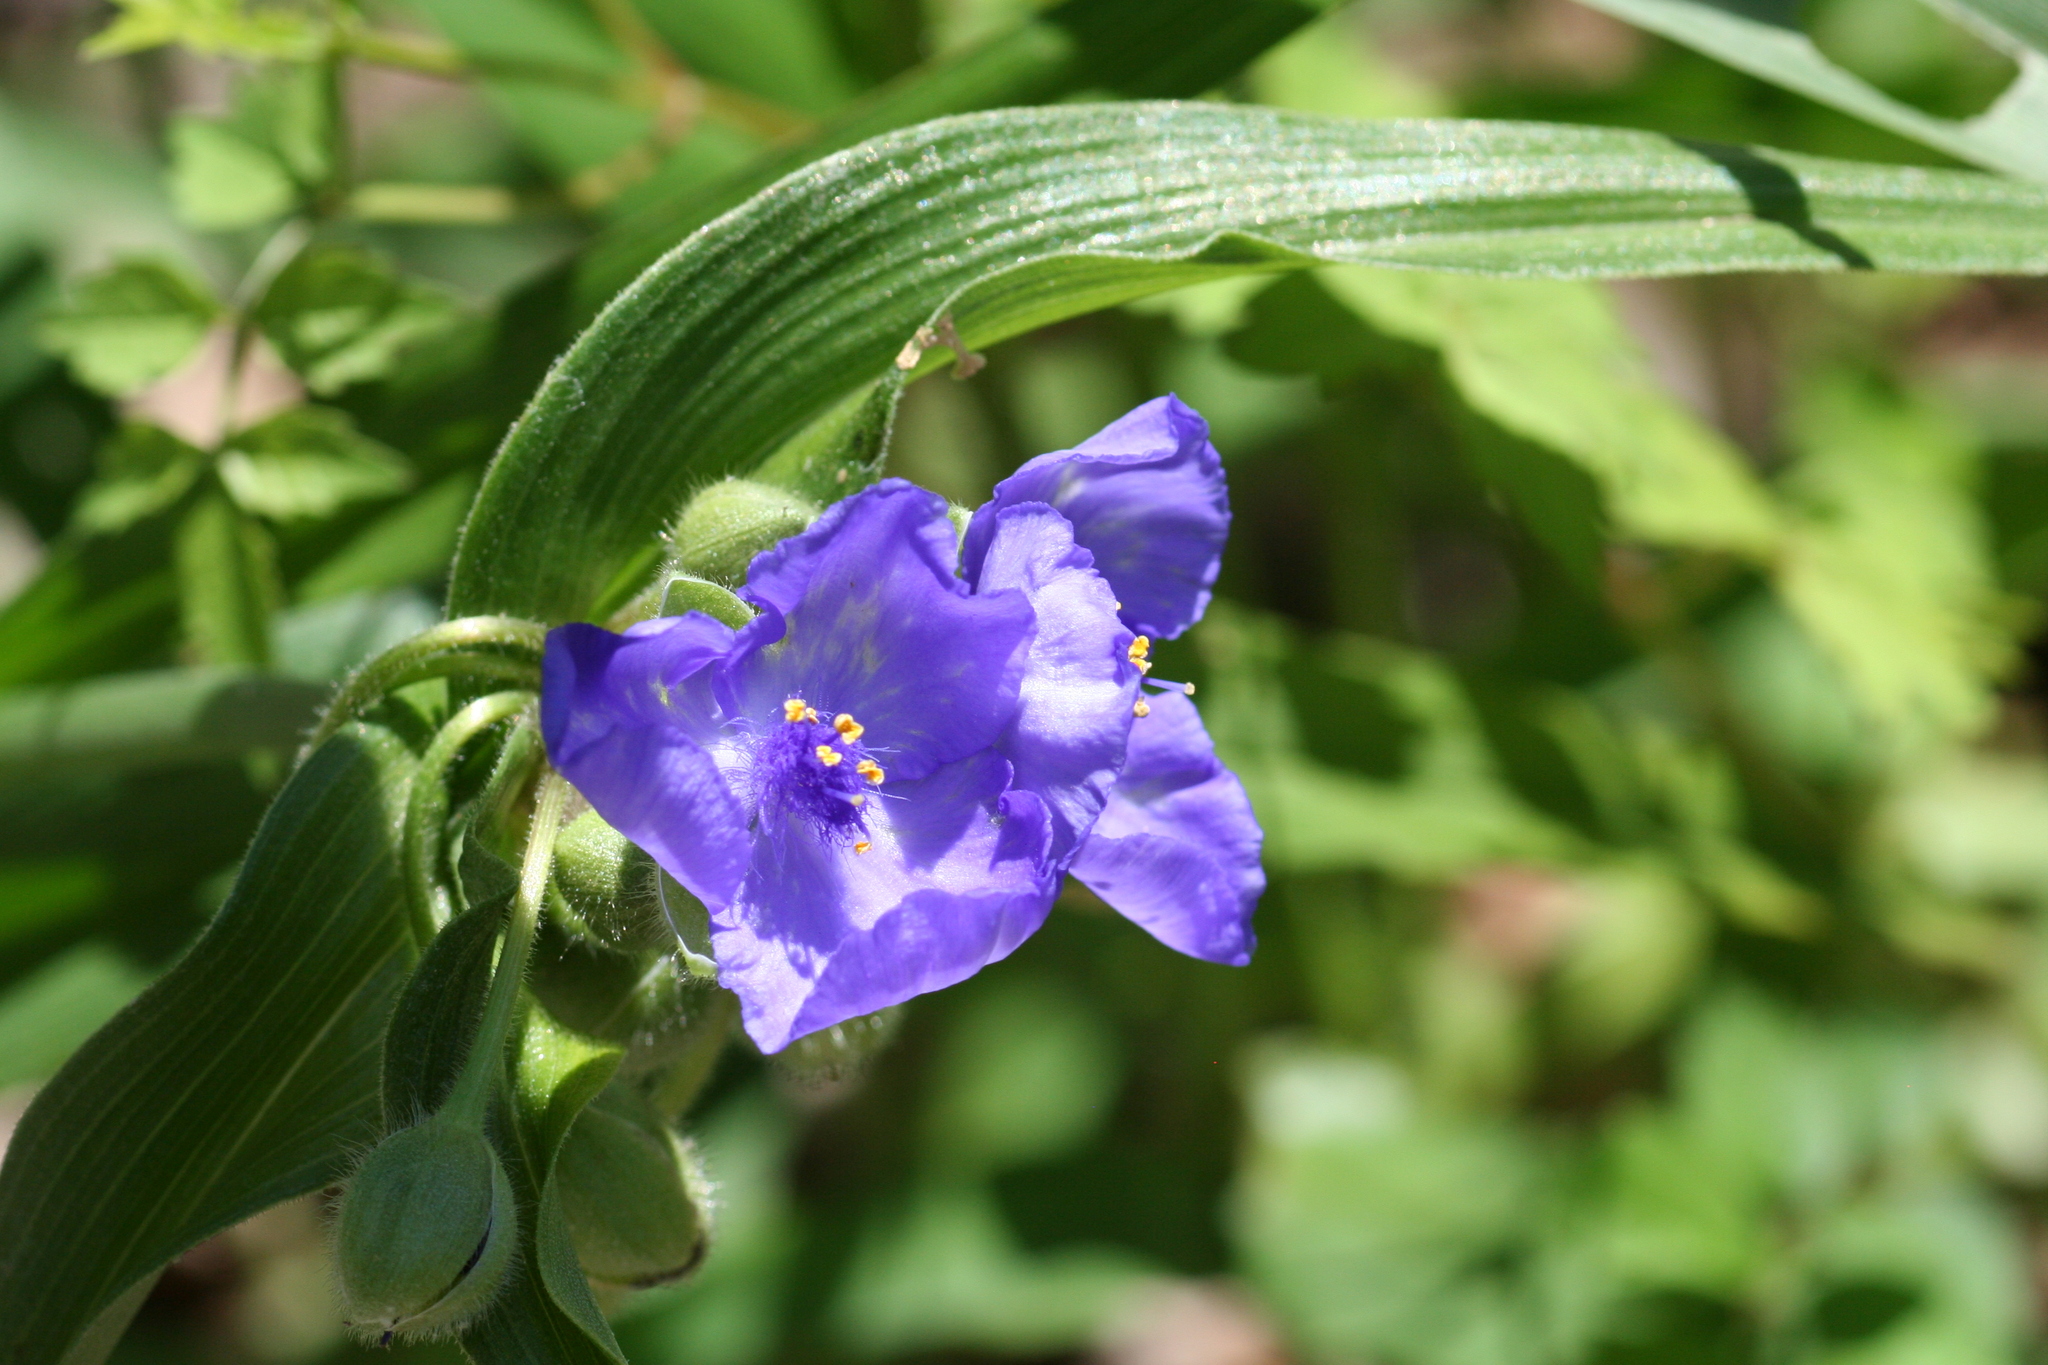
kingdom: Plantae
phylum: Tracheophyta
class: Liliopsida
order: Commelinales
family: Commelinaceae
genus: Tradescantia
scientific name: Tradescantia virginiana
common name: Spiderwort
